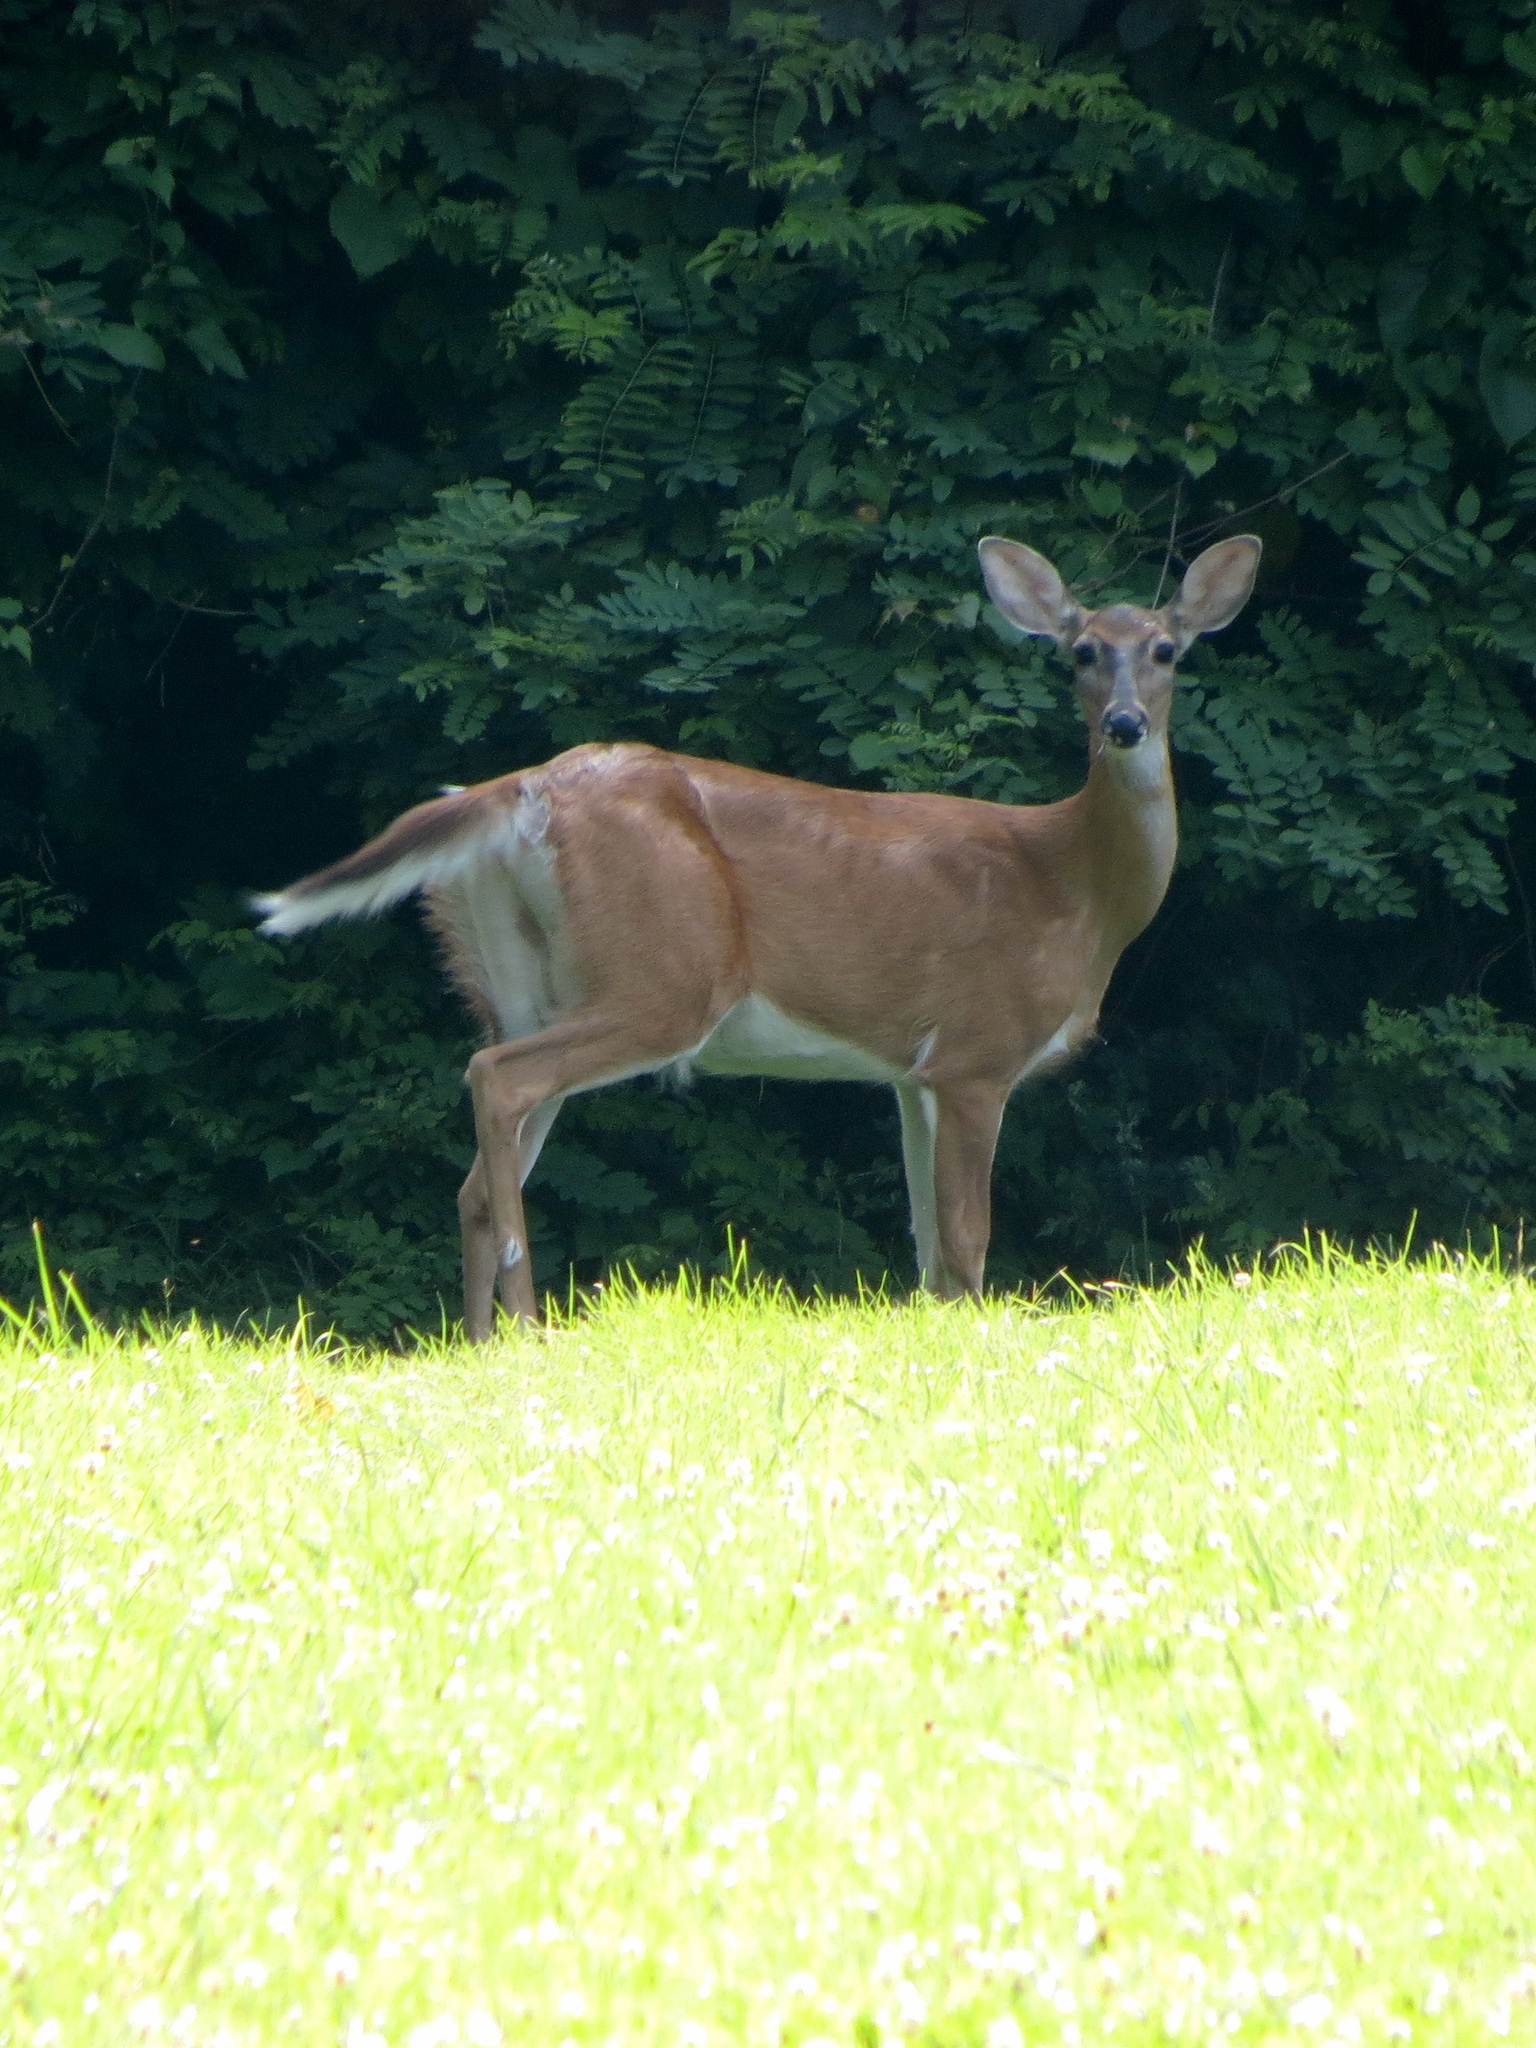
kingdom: Animalia
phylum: Chordata
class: Mammalia
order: Artiodactyla
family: Cervidae
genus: Odocoileus
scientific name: Odocoileus virginianus
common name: White-tailed deer
